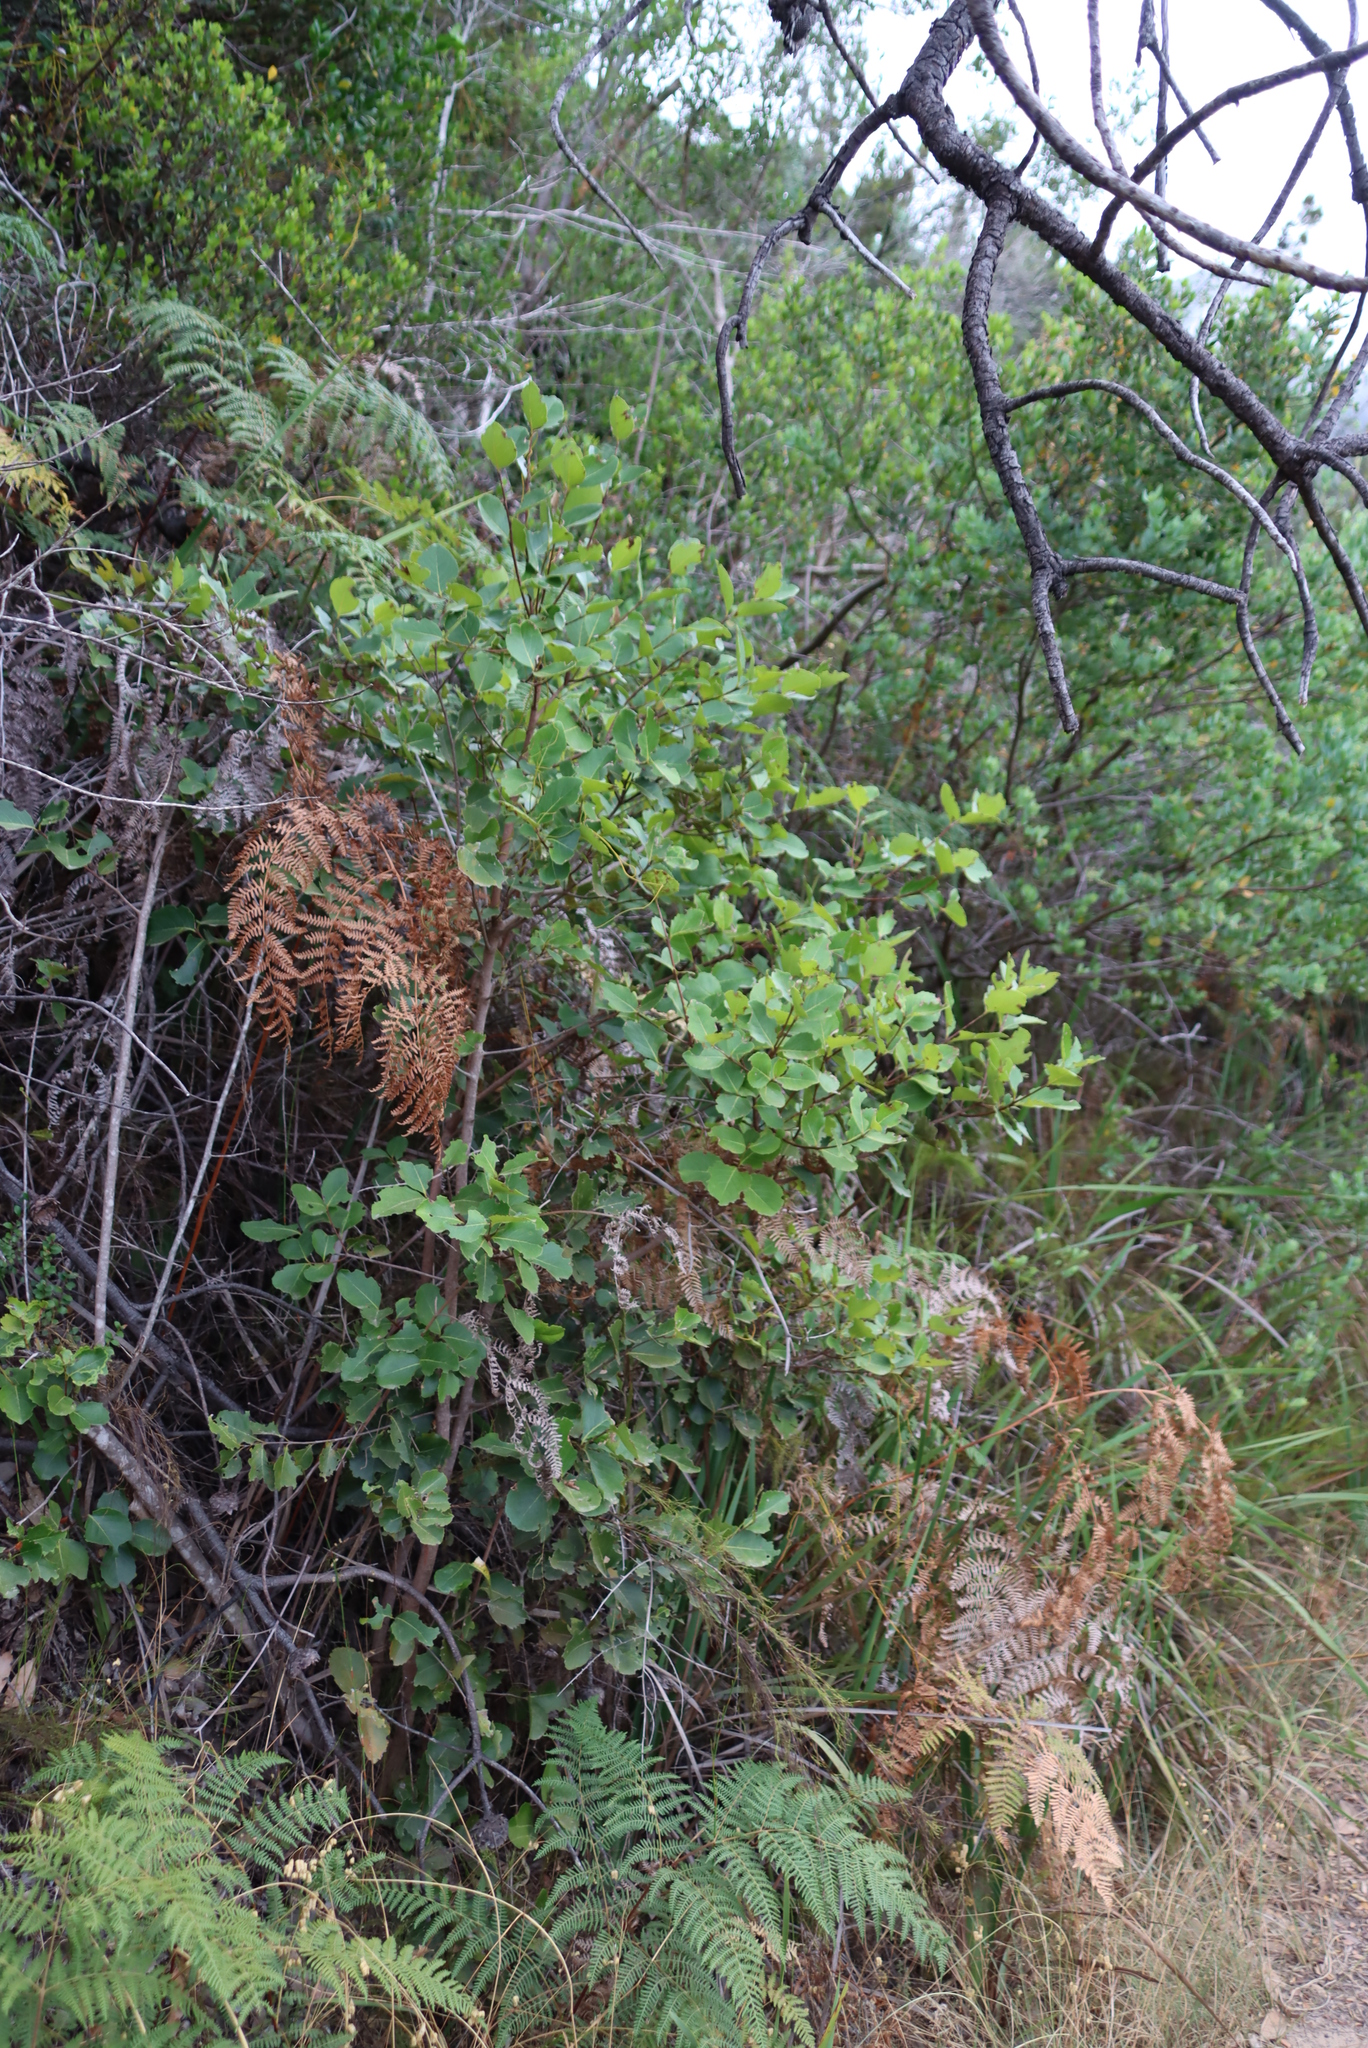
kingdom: Plantae
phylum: Tracheophyta
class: Magnoliopsida
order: Celastrales
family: Celastraceae
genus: Cassine
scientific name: Cassine peragua
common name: Cape saffron
